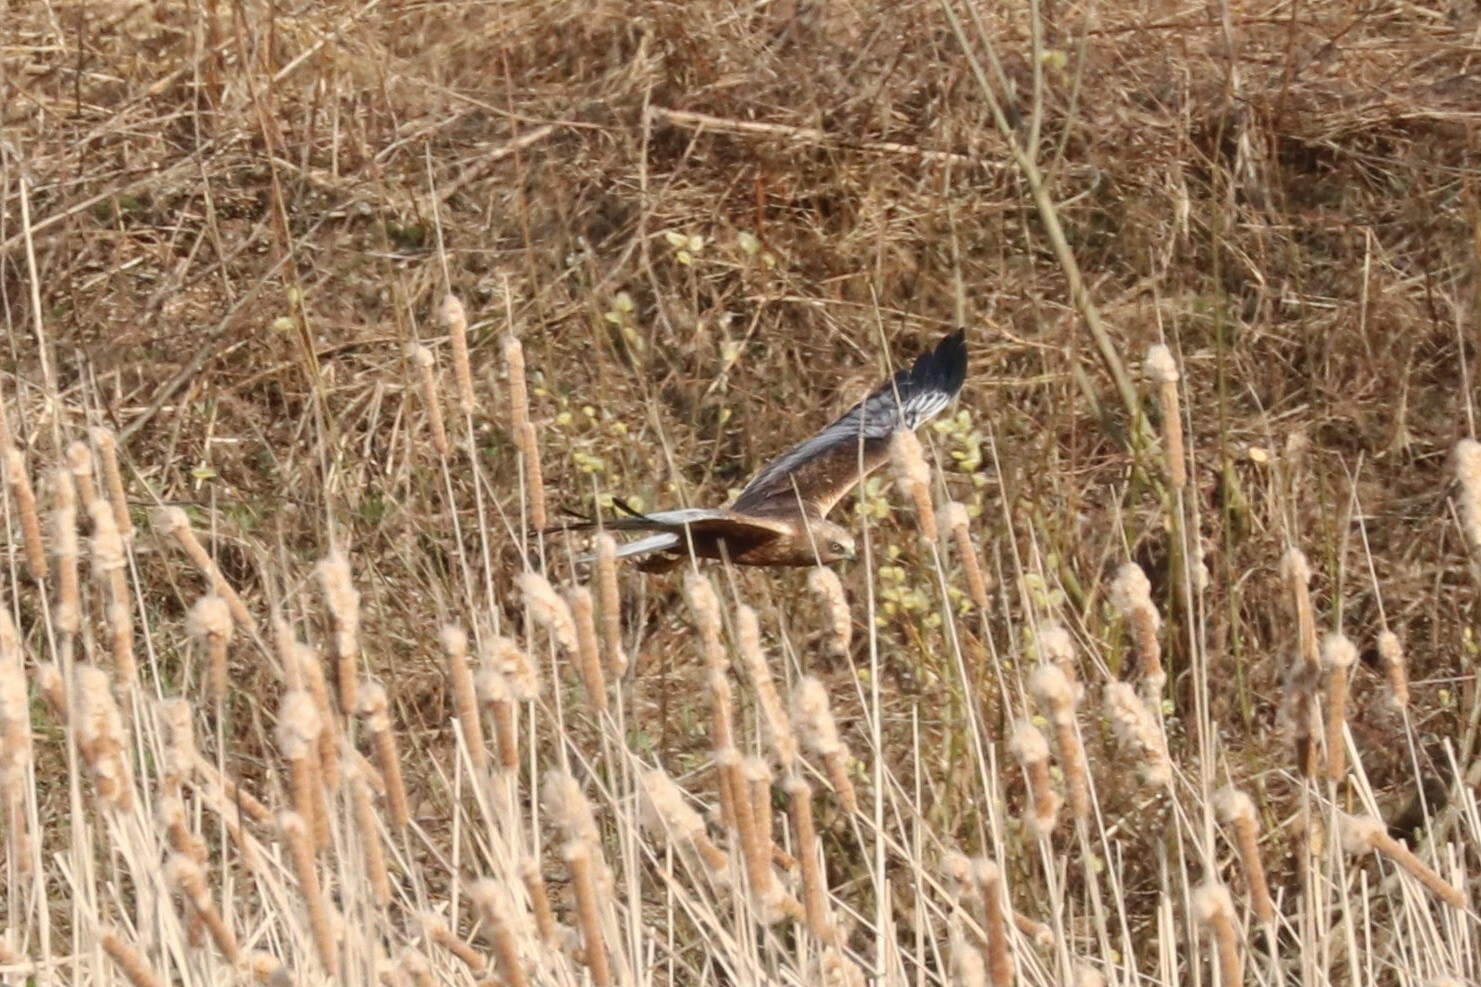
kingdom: Animalia
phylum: Chordata
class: Aves
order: Accipitriformes
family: Accipitridae
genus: Circus
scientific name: Circus aeruginosus
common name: Western marsh harrier
